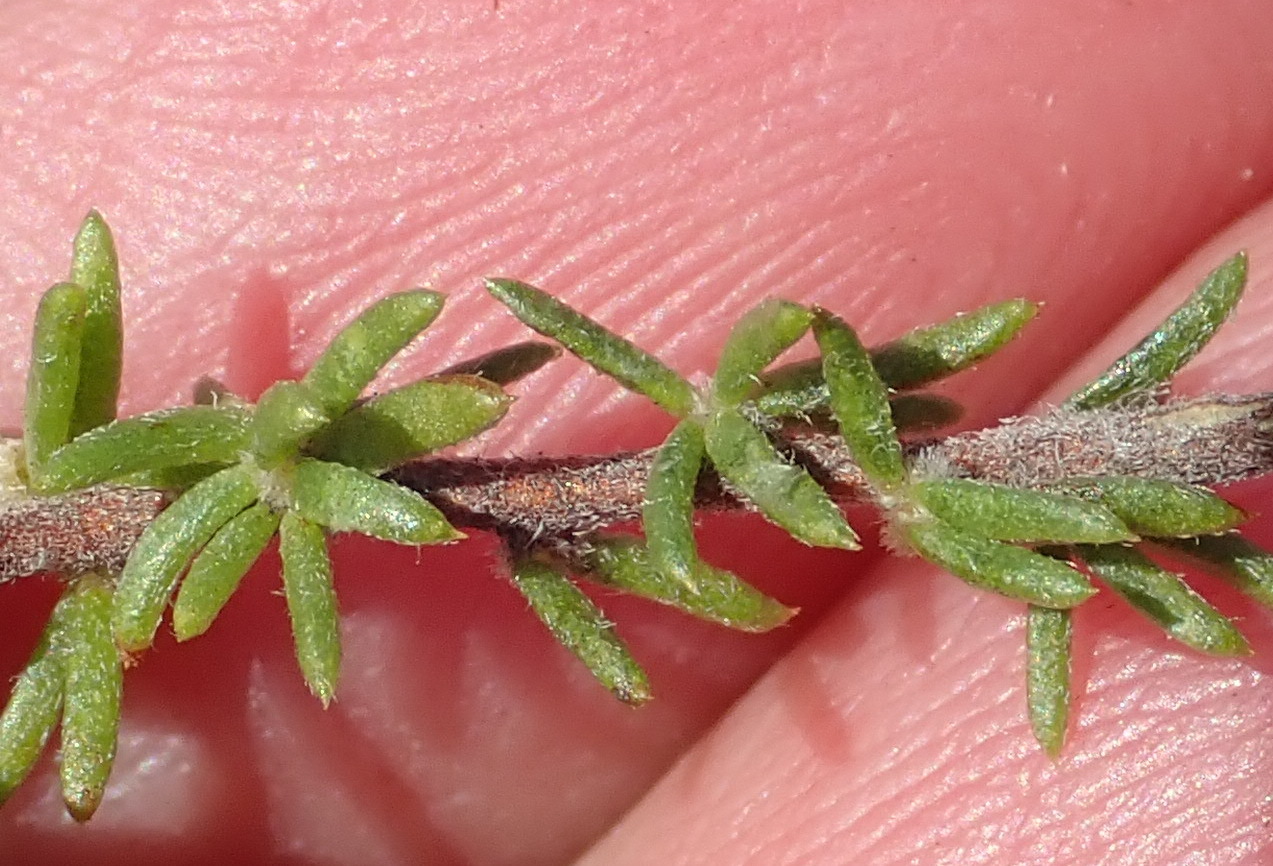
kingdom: Plantae
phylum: Tracheophyta
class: Magnoliopsida
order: Fabales
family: Fabaceae
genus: Aspalathus
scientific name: Aspalathus opaca
